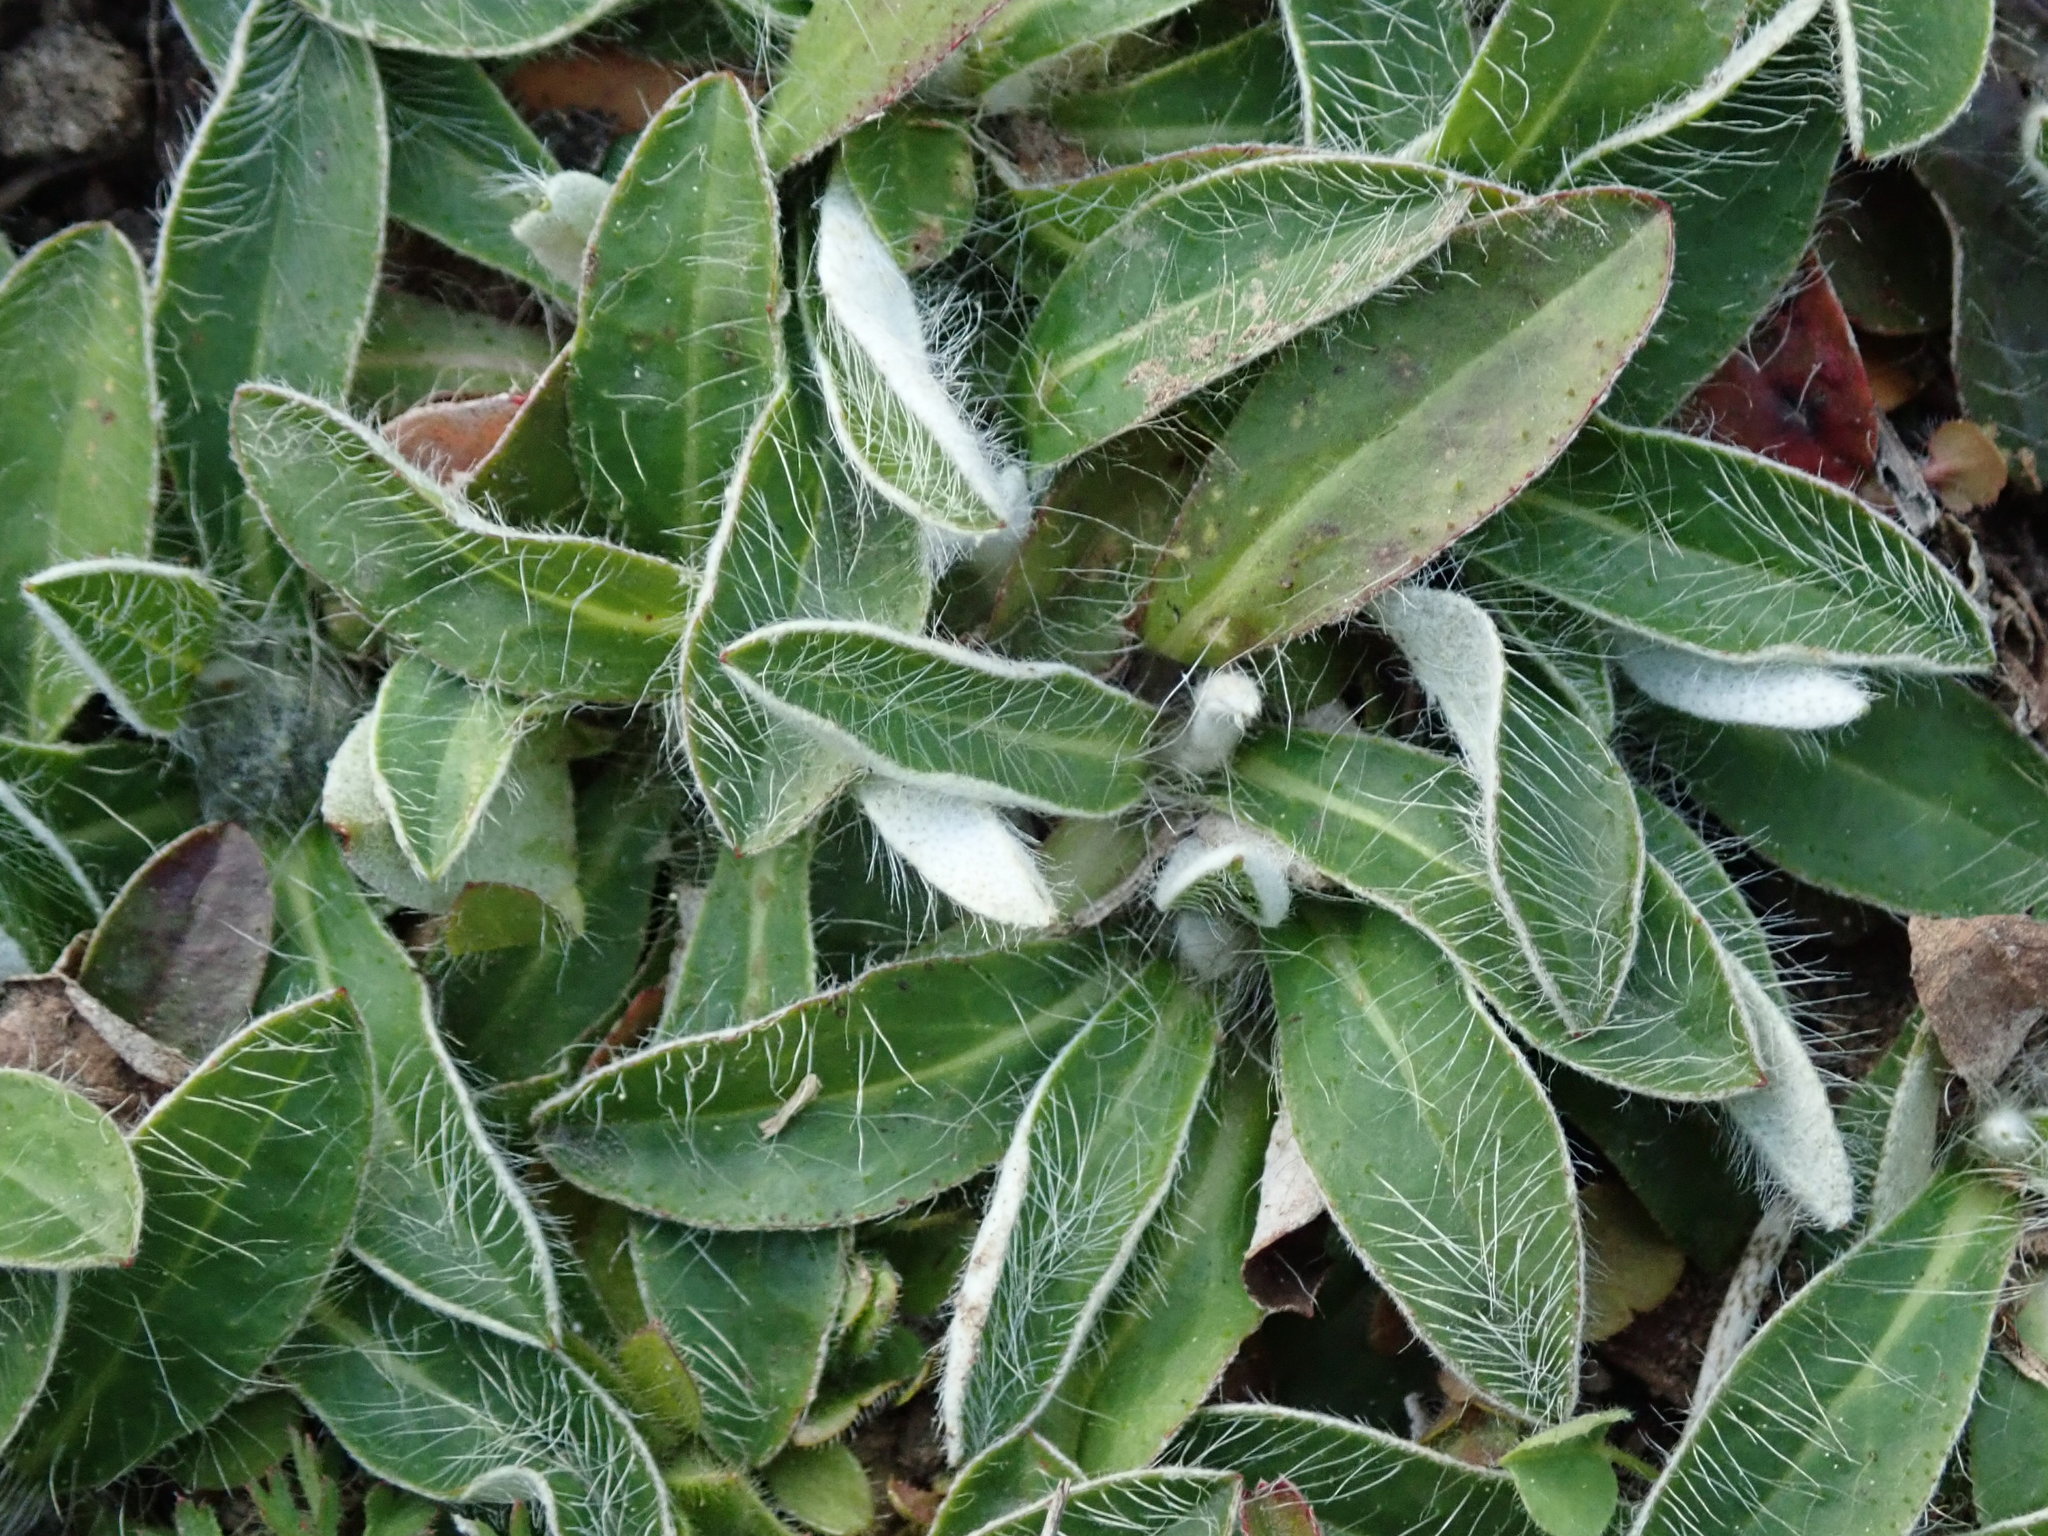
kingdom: Plantae
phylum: Tracheophyta
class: Magnoliopsida
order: Asterales
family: Asteraceae
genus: Pilosella
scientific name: Pilosella officinarum
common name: Mouse-ear hawkweed
